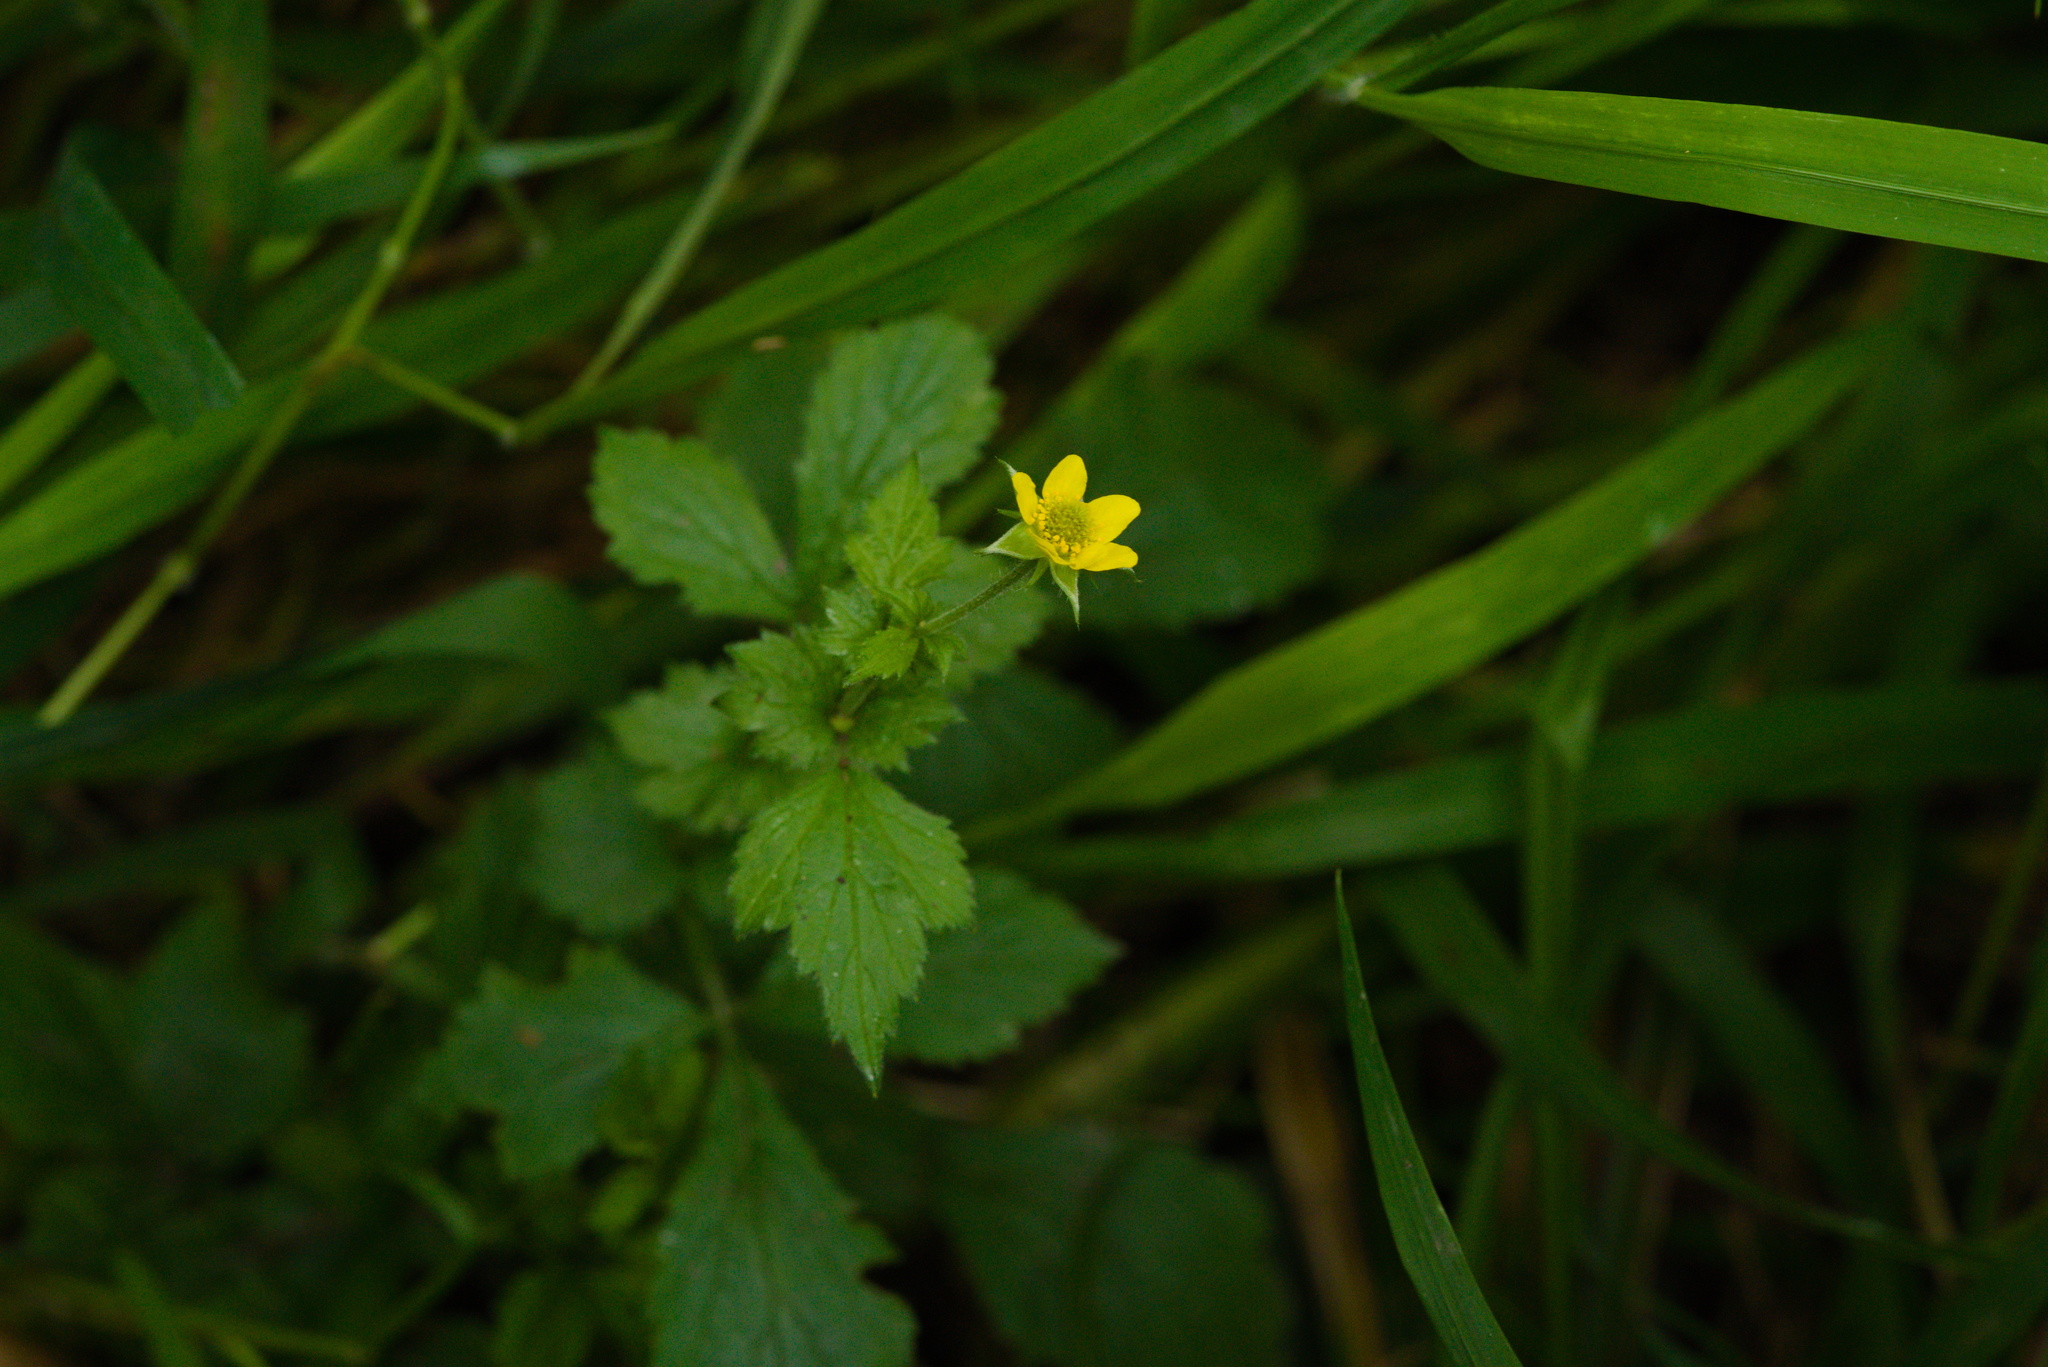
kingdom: Plantae
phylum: Tracheophyta
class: Magnoliopsida
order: Rosales
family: Rosaceae
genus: Geum
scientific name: Geum urbanum
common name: Wood avens
